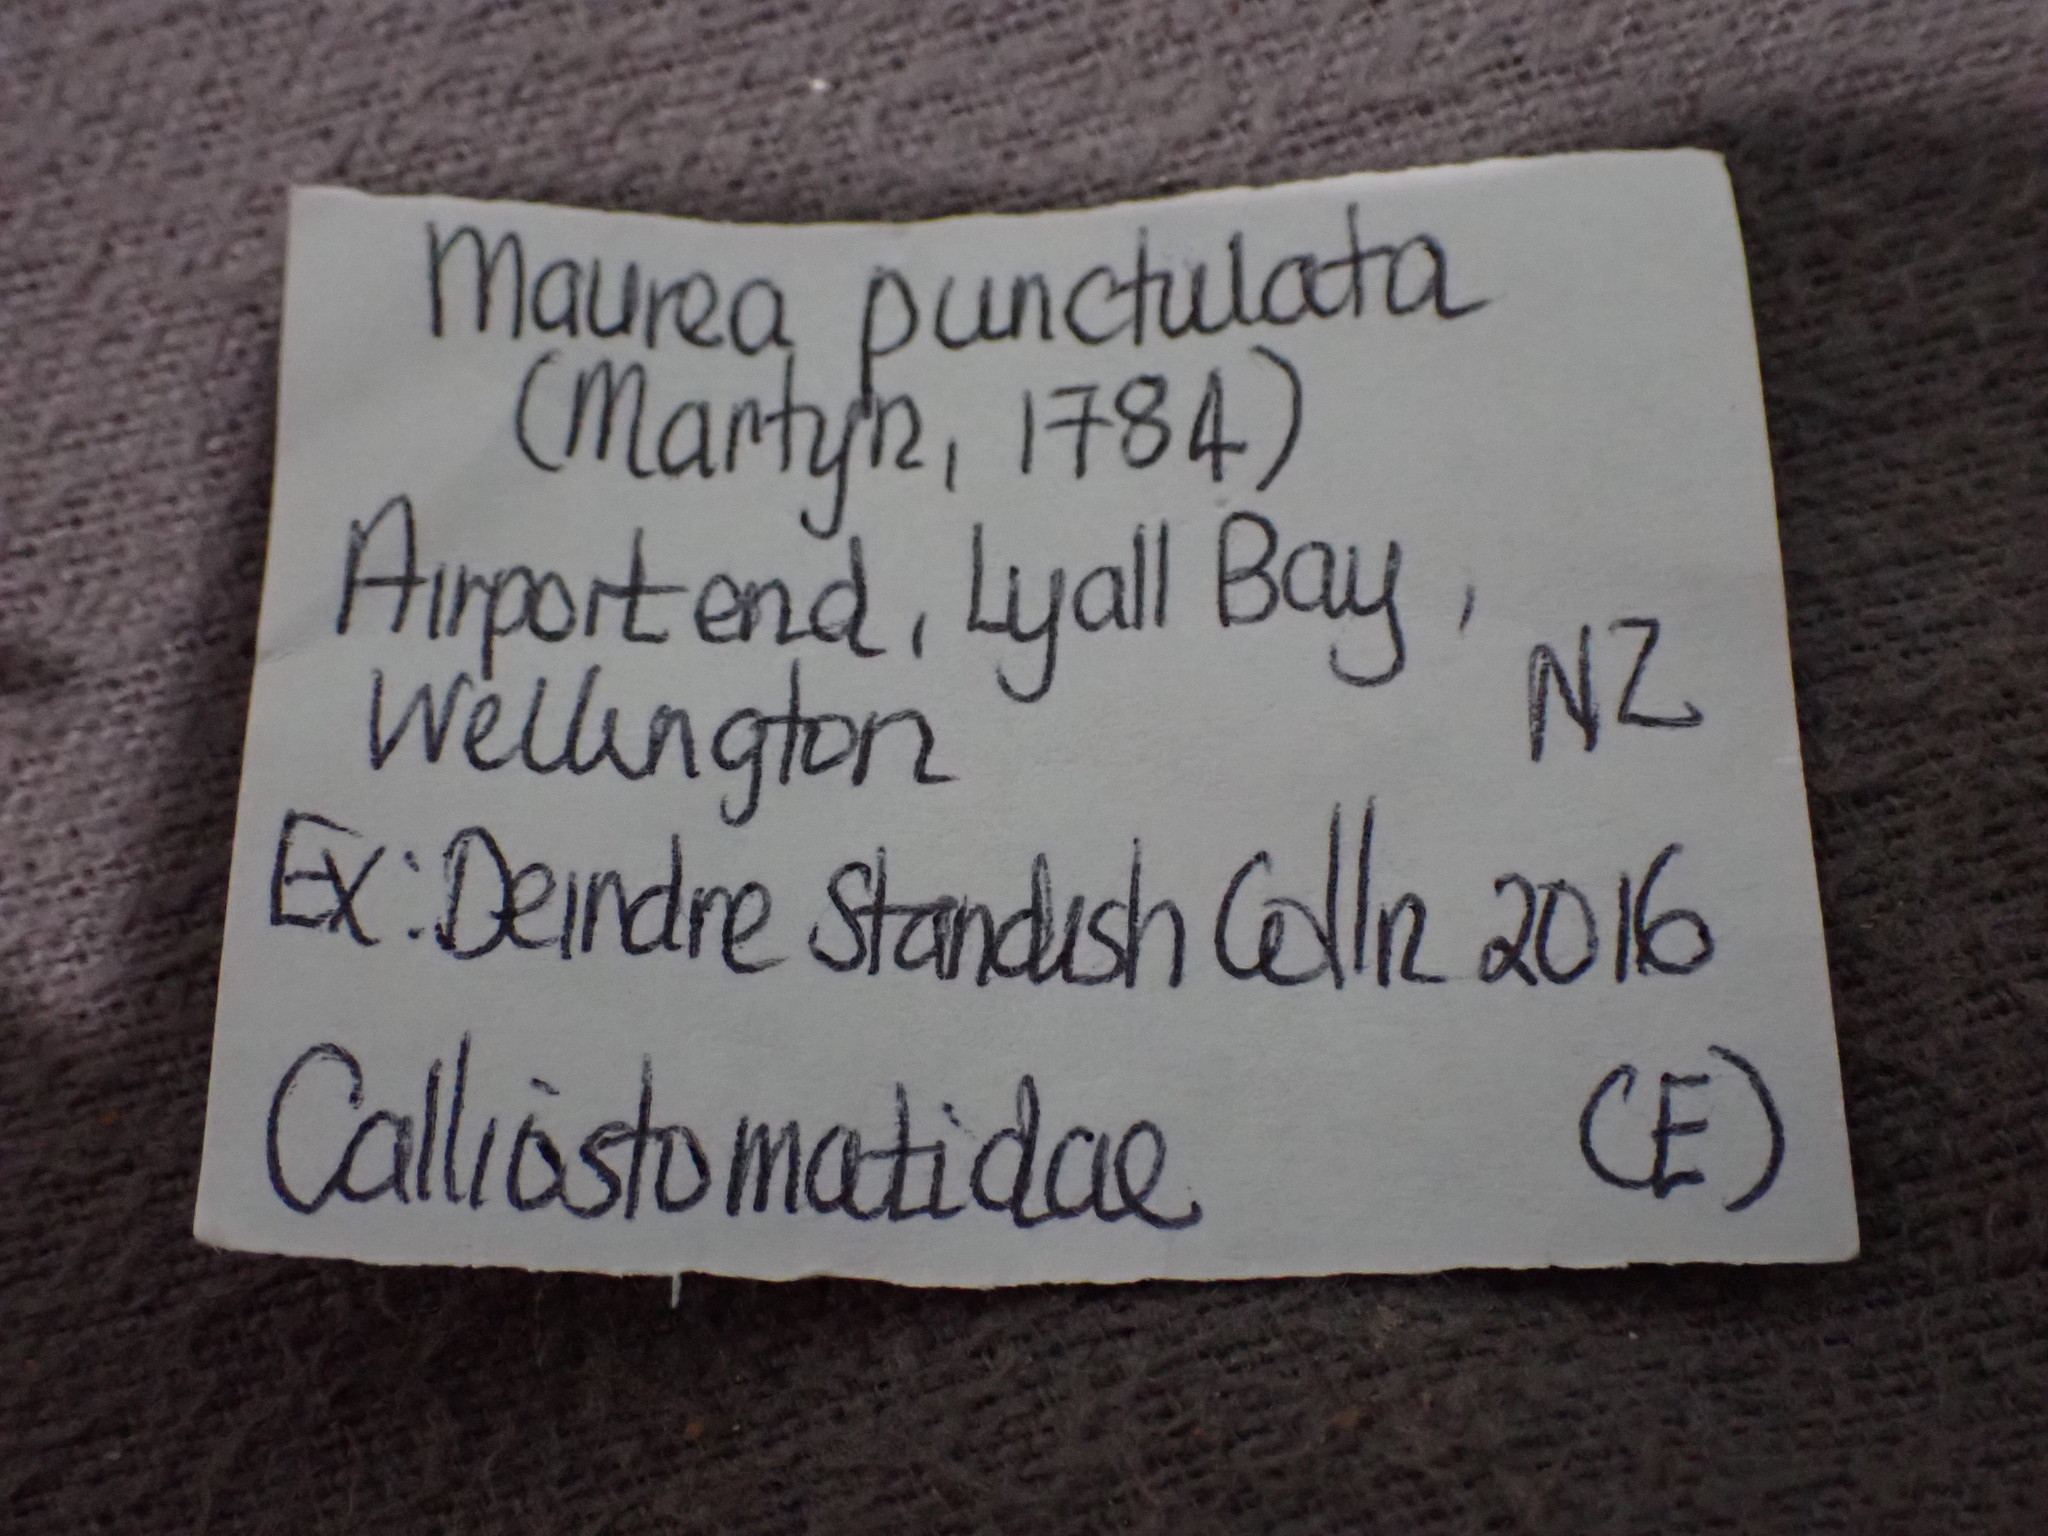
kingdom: Animalia
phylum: Mollusca
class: Gastropoda
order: Trochida
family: Calliostomatidae
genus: Maurea
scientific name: Maurea punctulata
